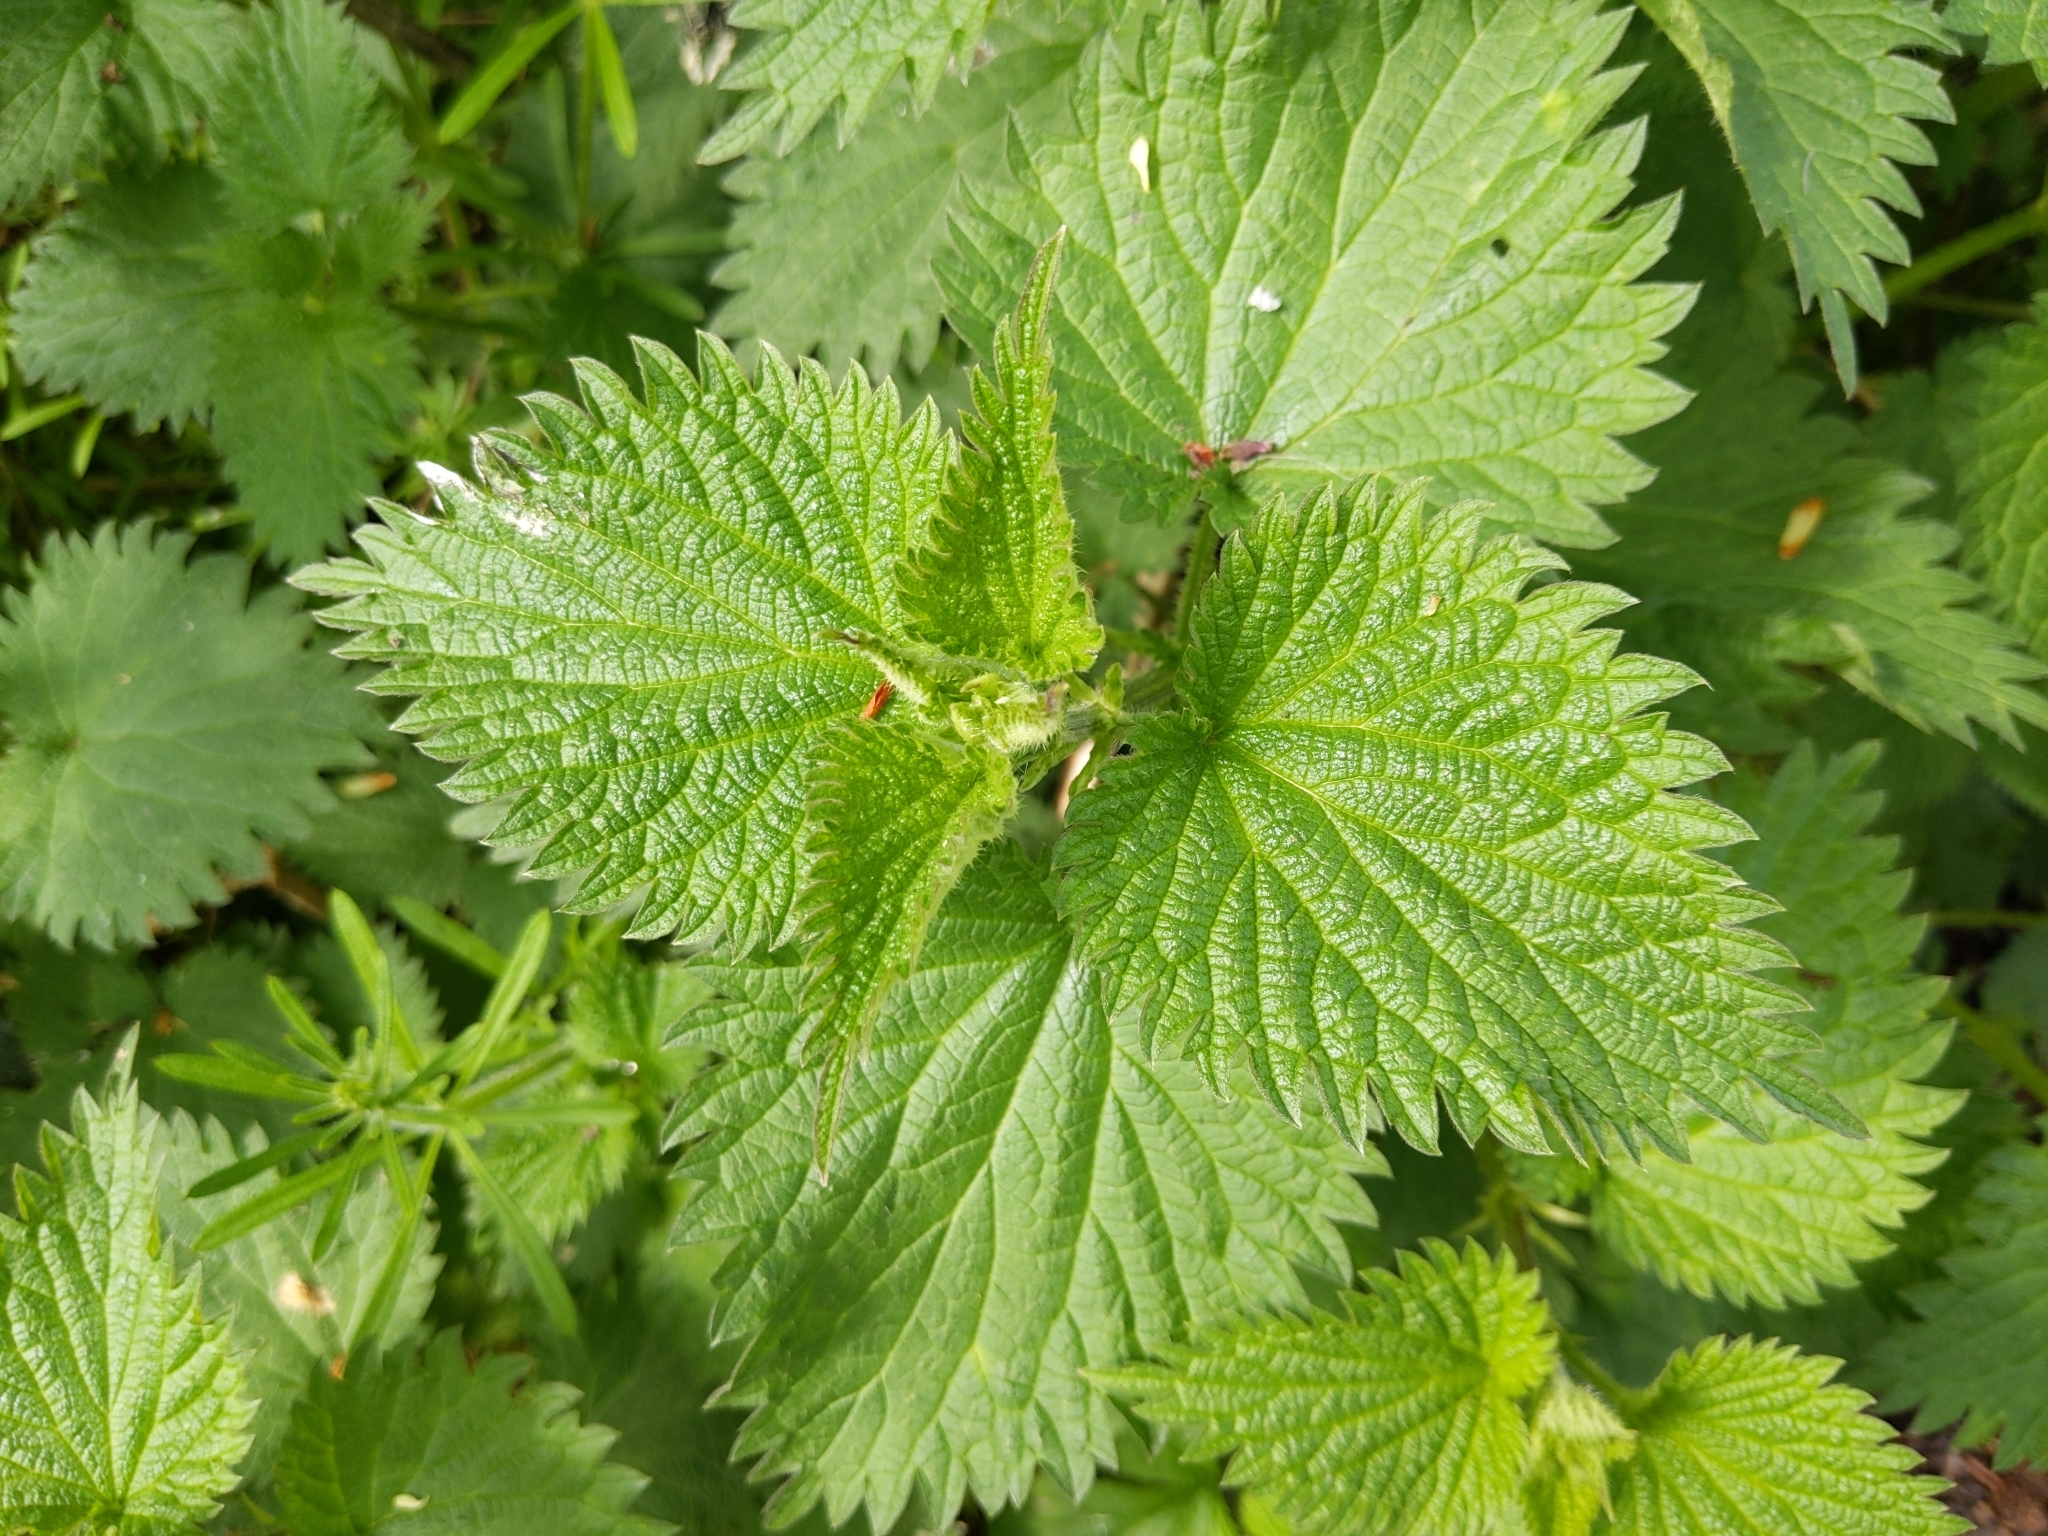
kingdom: Plantae
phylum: Tracheophyta
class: Magnoliopsida
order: Rosales
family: Urticaceae
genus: Urtica
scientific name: Urtica dioica
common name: Common nettle
